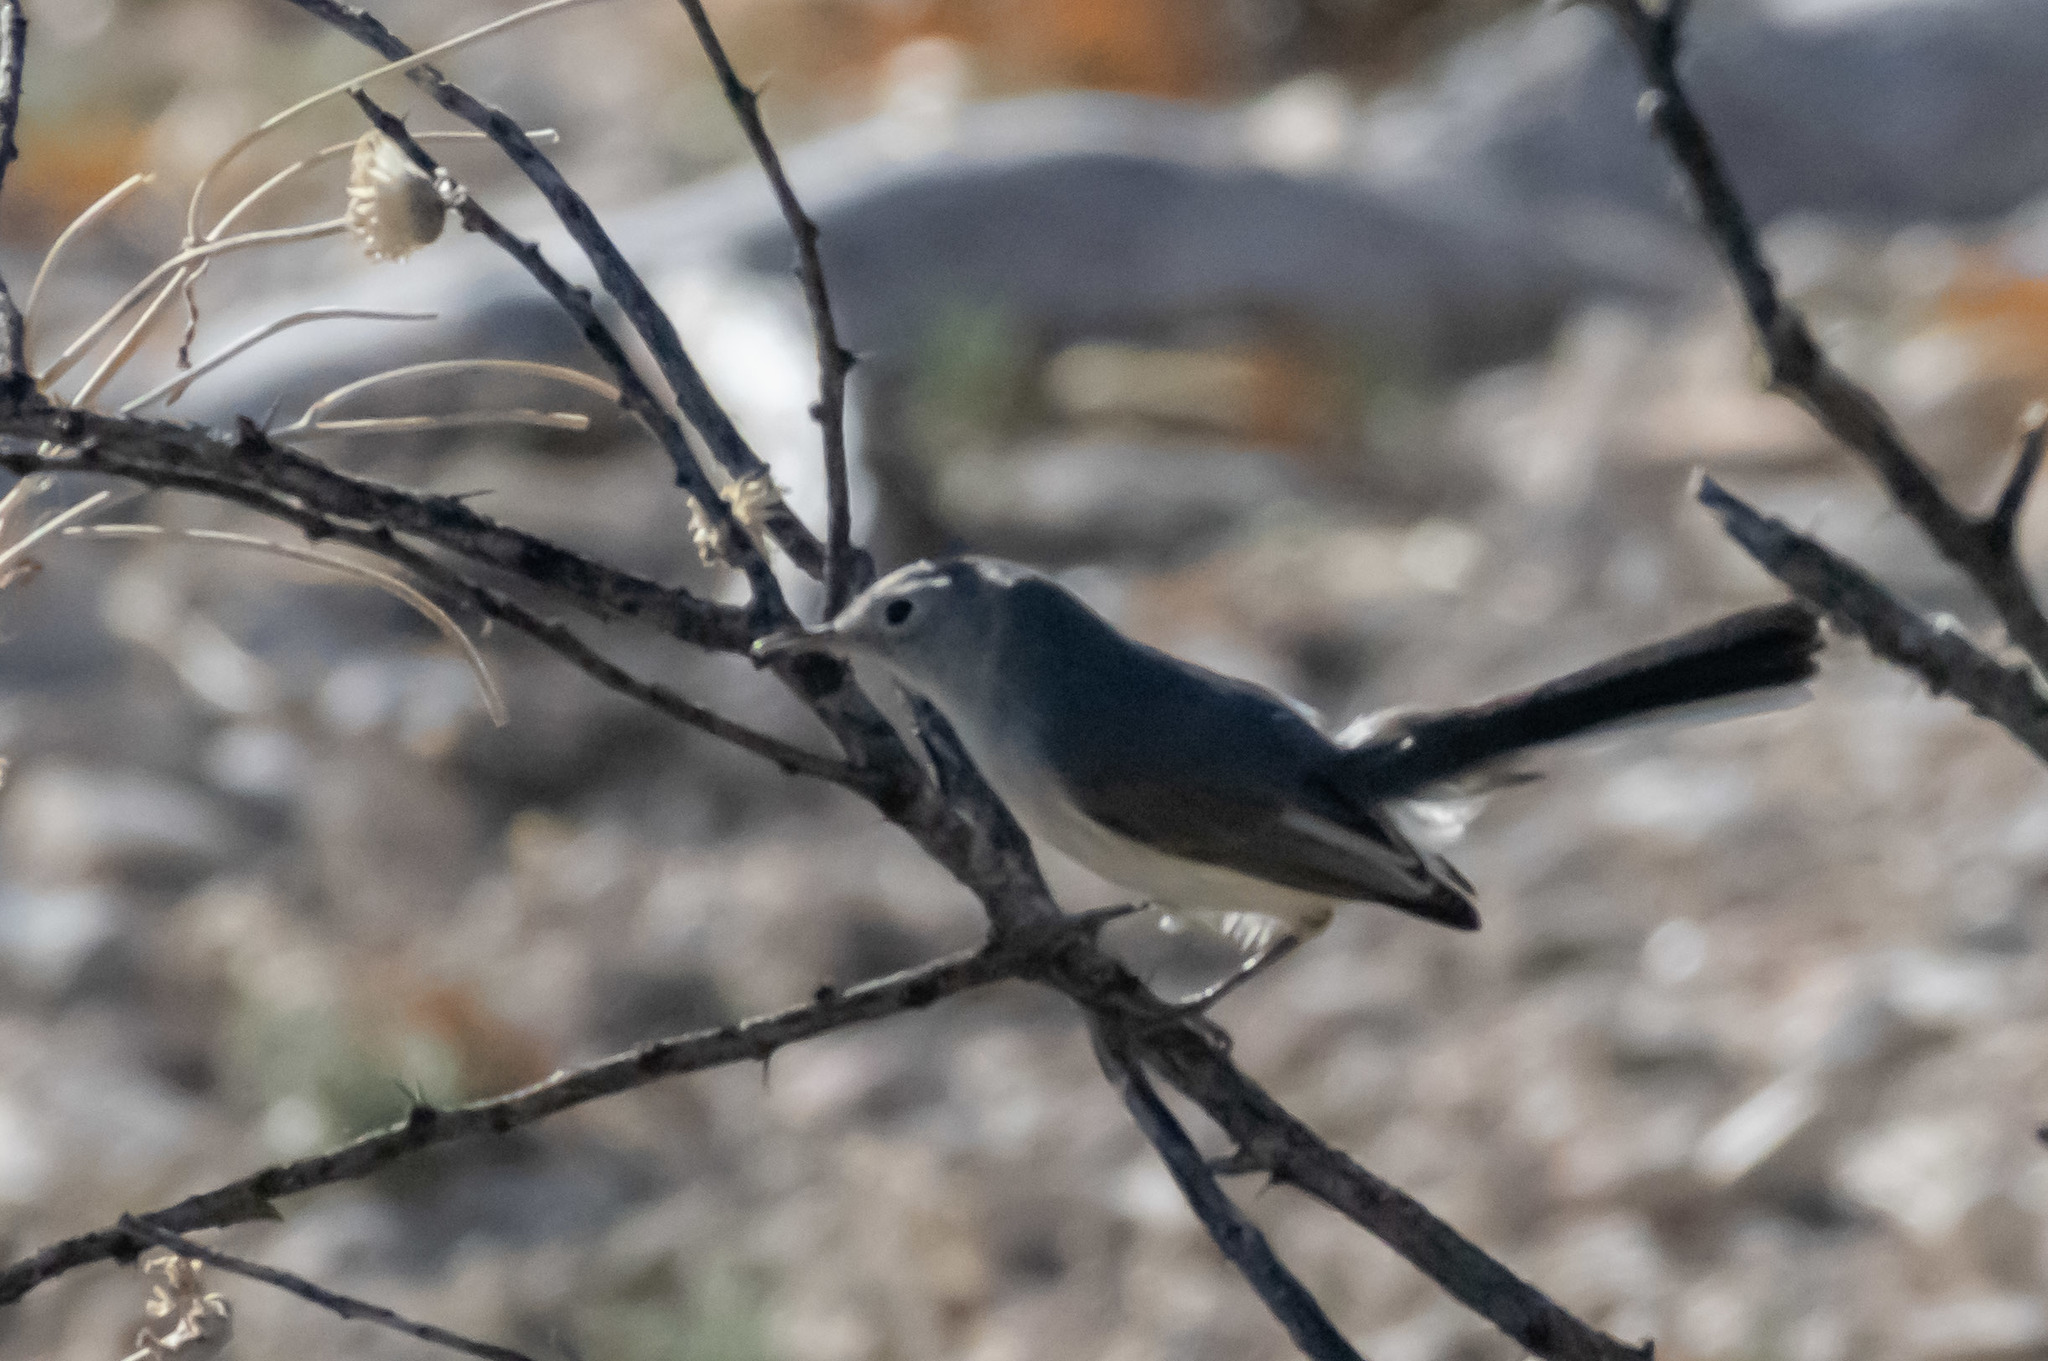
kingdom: Animalia
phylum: Chordata
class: Aves
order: Passeriformes
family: Polioptilidae
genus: Polioptila
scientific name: Polioptila caerulea
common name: Blue-gray gnatcatcher
